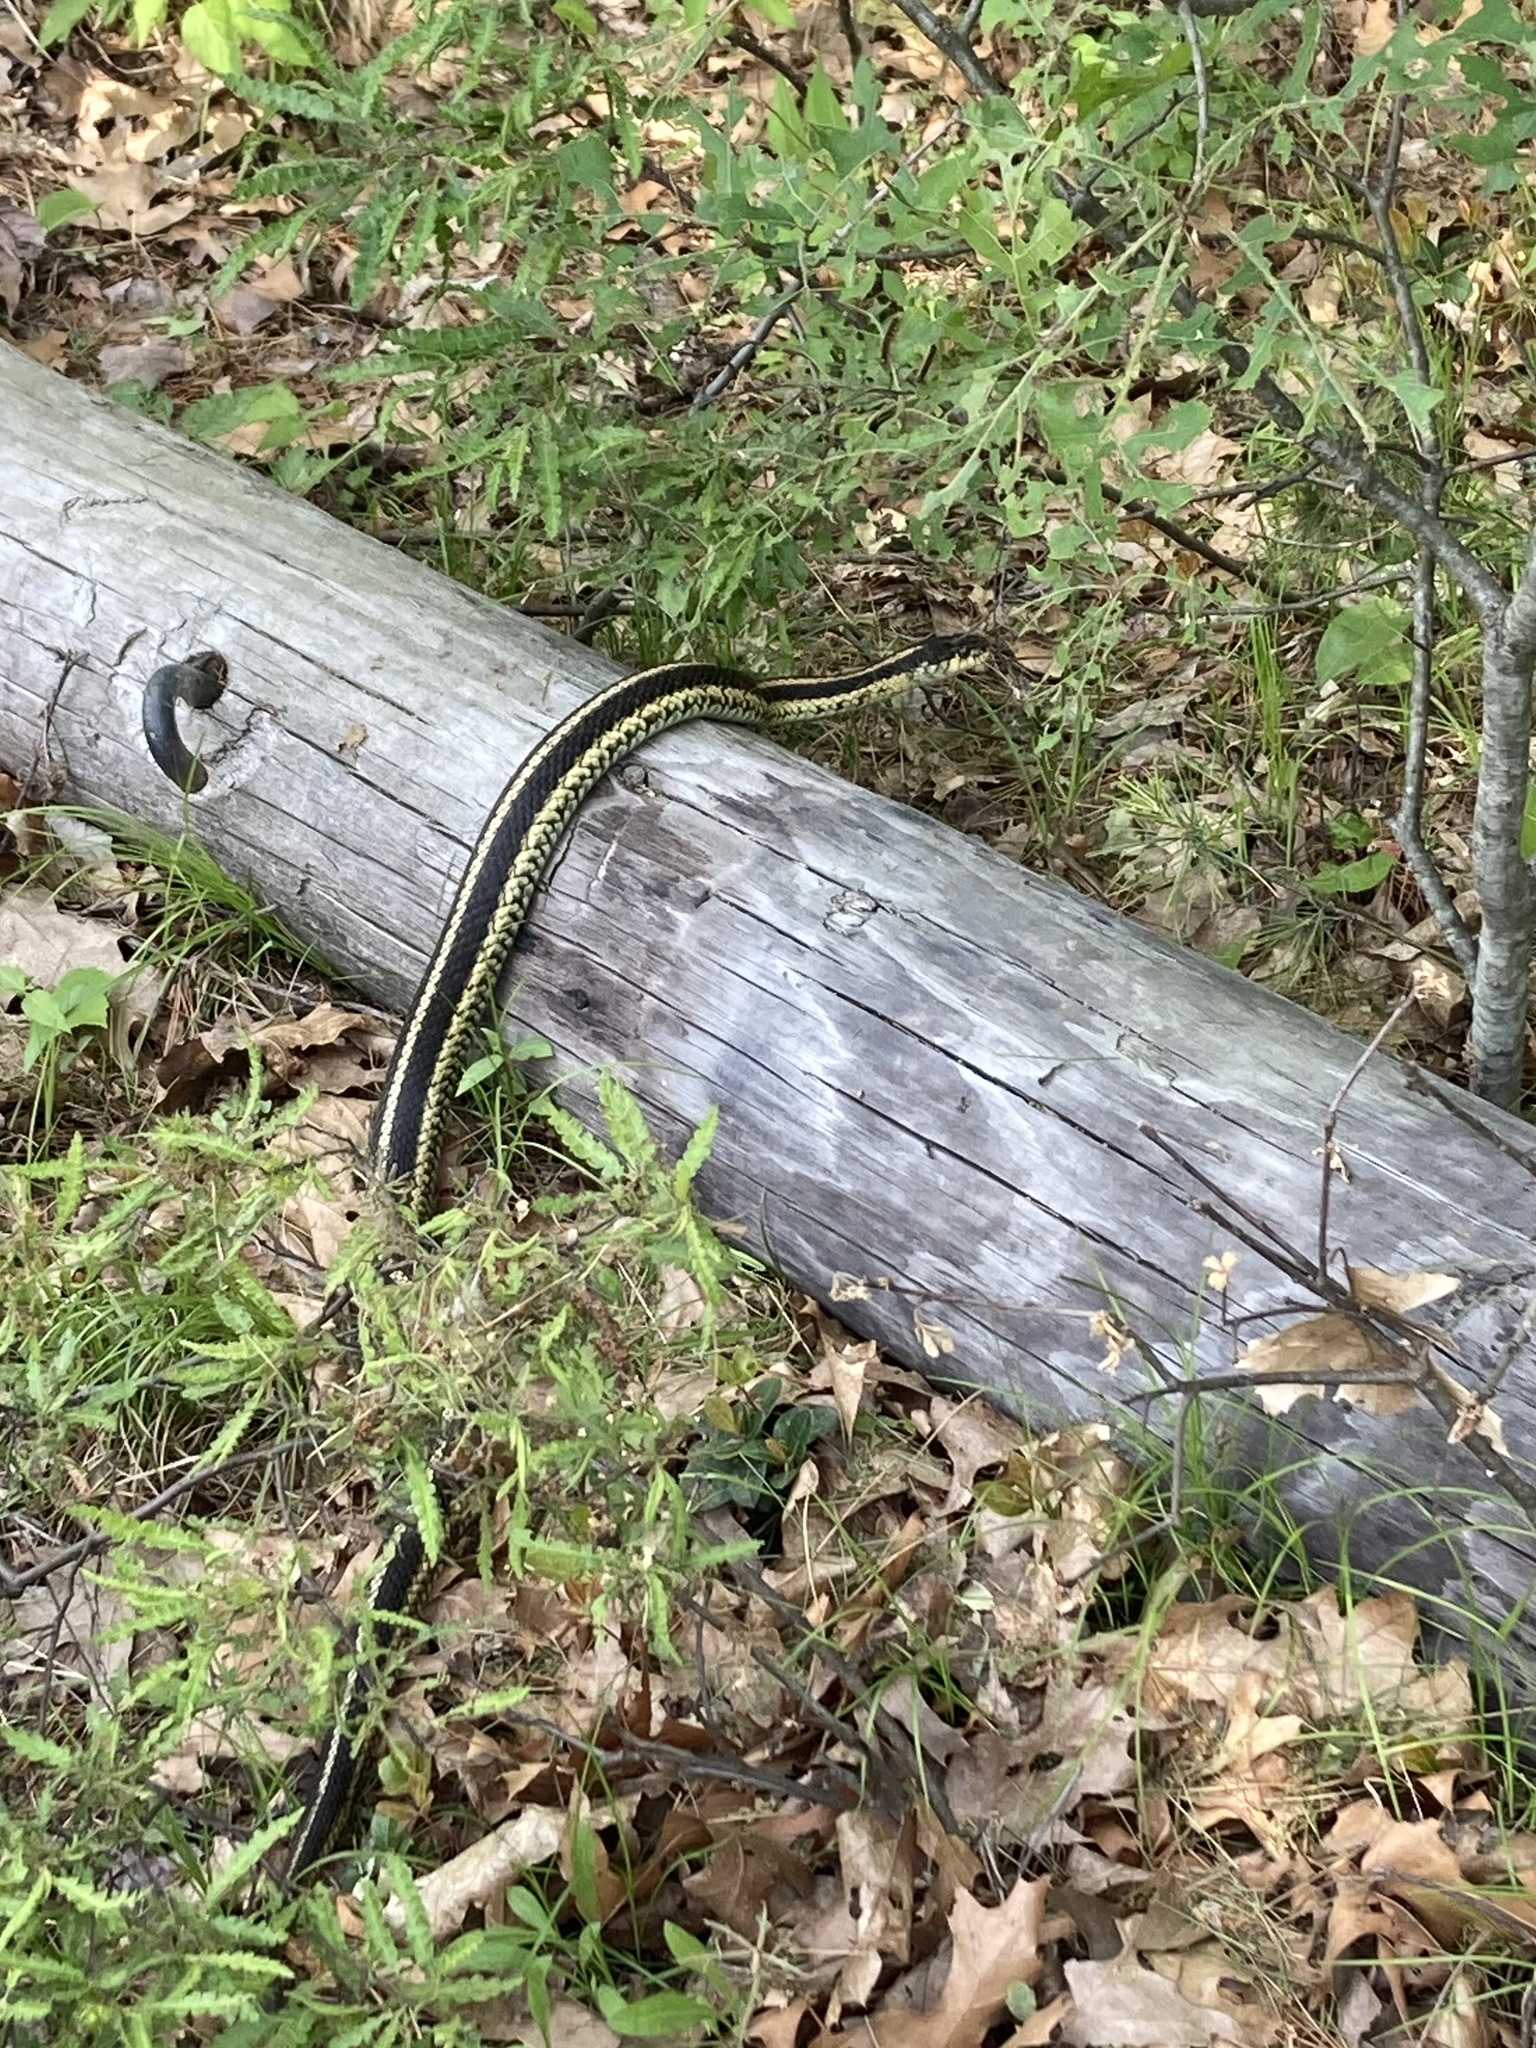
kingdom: Animalia
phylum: Chordata
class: Squamata
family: Colubridae
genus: Thamnophis
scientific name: Thamnophis sirtalis
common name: Common garter snake
